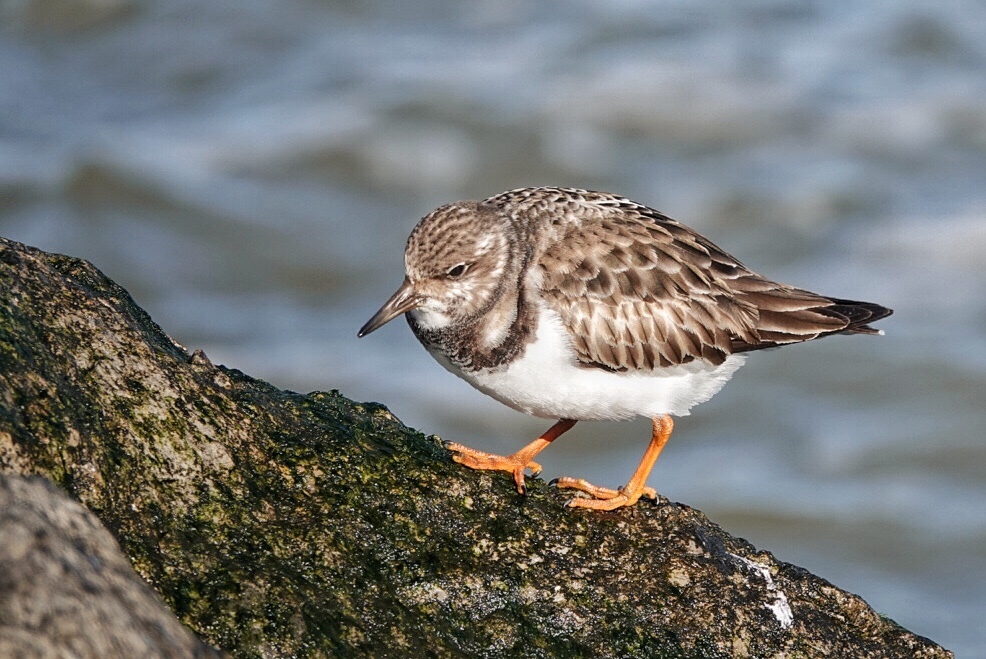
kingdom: Animalia
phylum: Chordata
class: Aves
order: Charadriiformes
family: Scolopacidae
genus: Arenaria
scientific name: Arenaria interpres
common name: Ruddy turnstone
